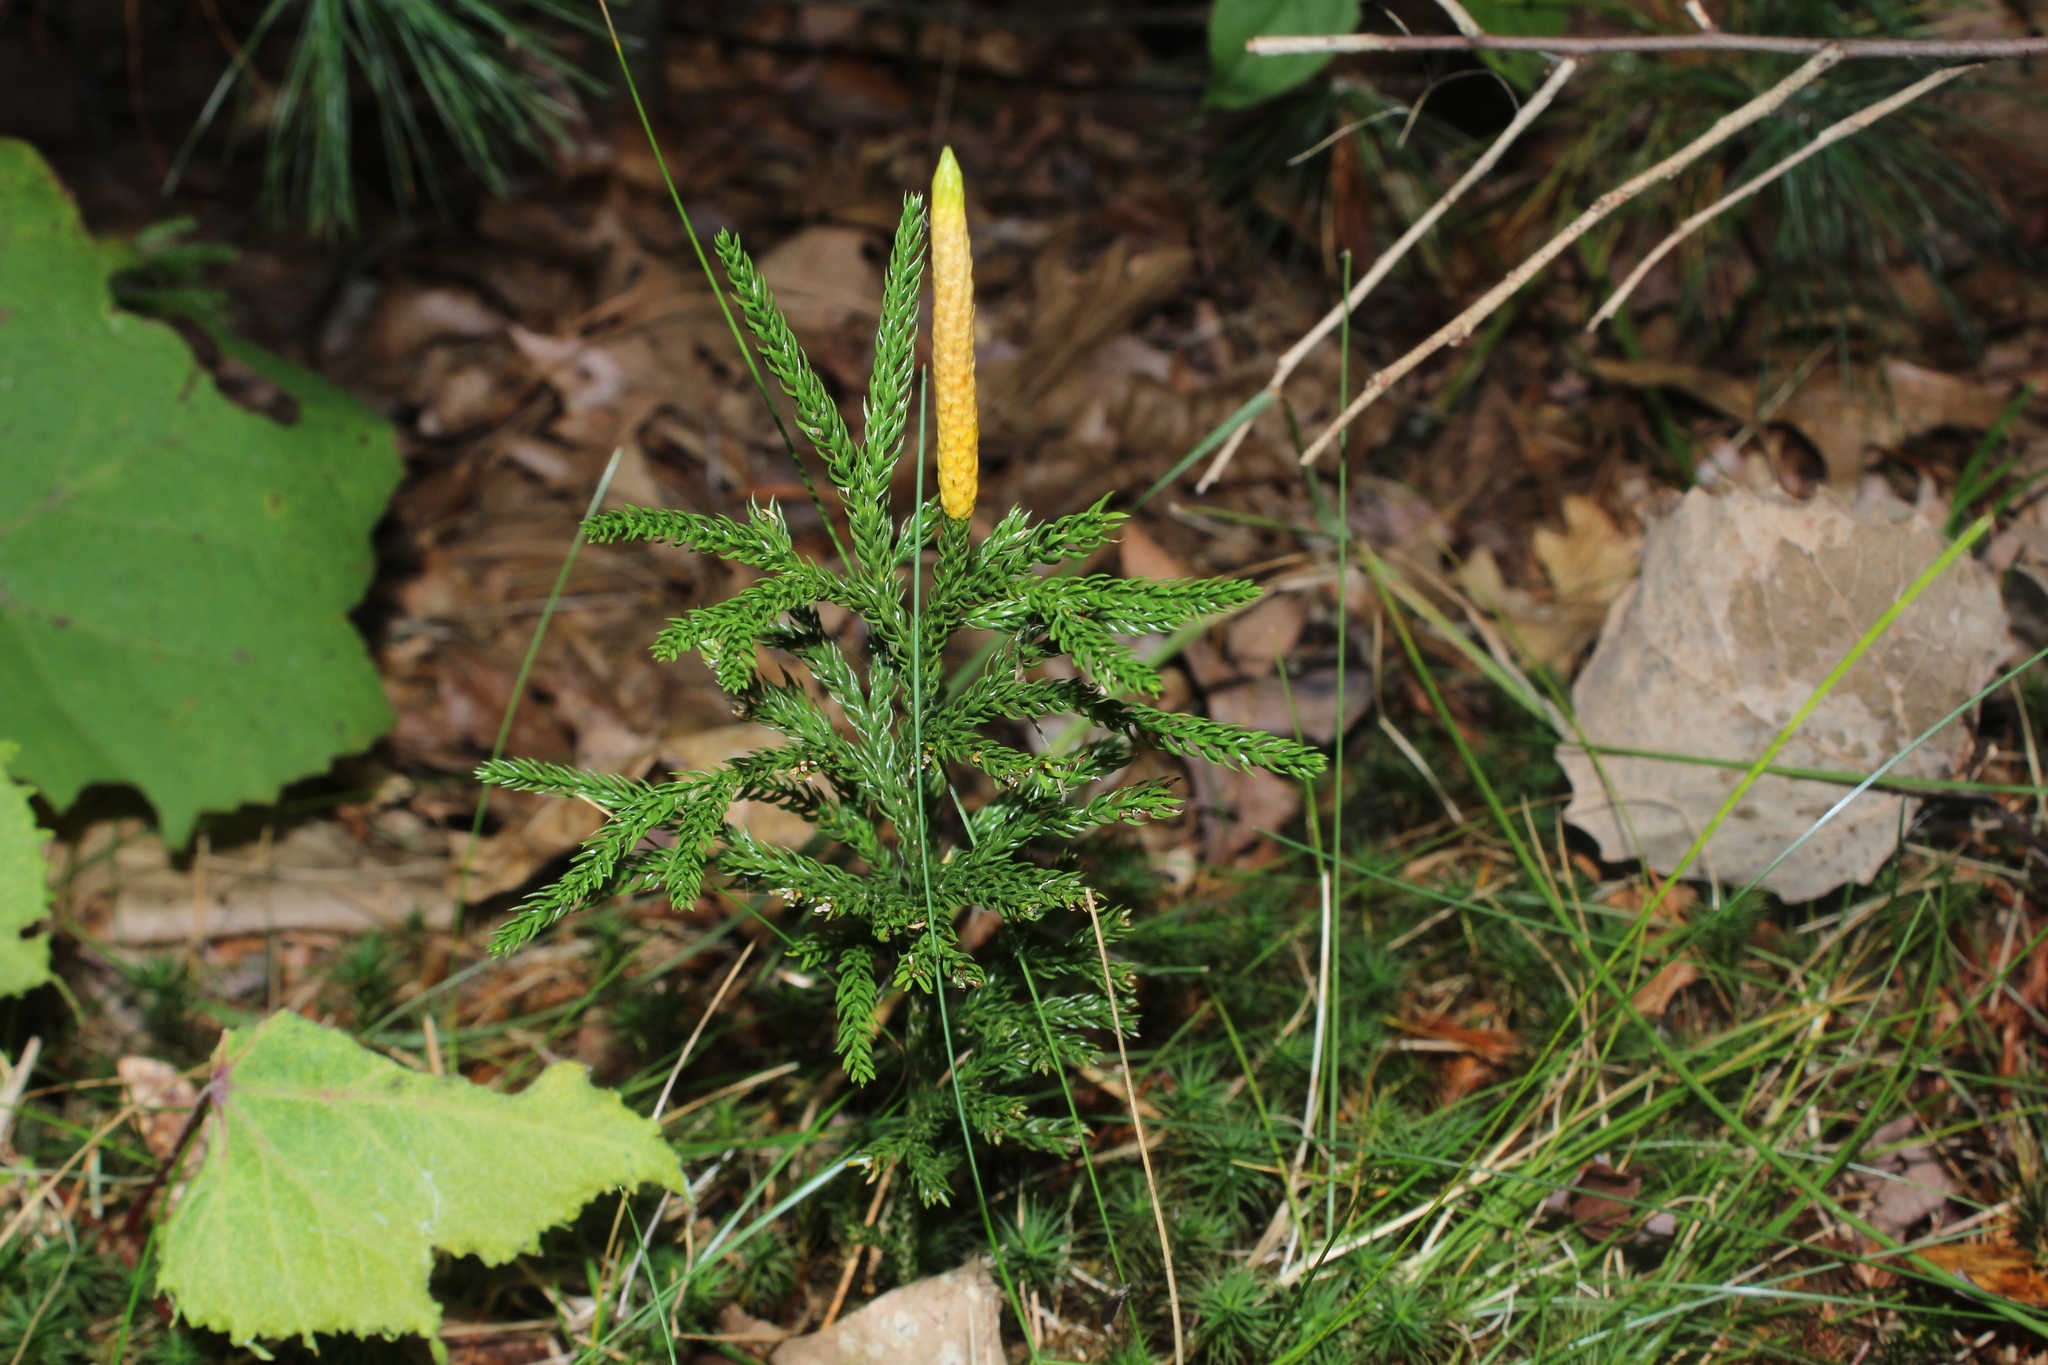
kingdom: Plantae
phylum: Tracheophyta
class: Lycopodiopsida
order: Lycopodiales
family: Lycopodiaceae
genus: Dendrolycopodium
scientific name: Dendrolycopodium hickeyi
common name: Hickey's clubmoss
